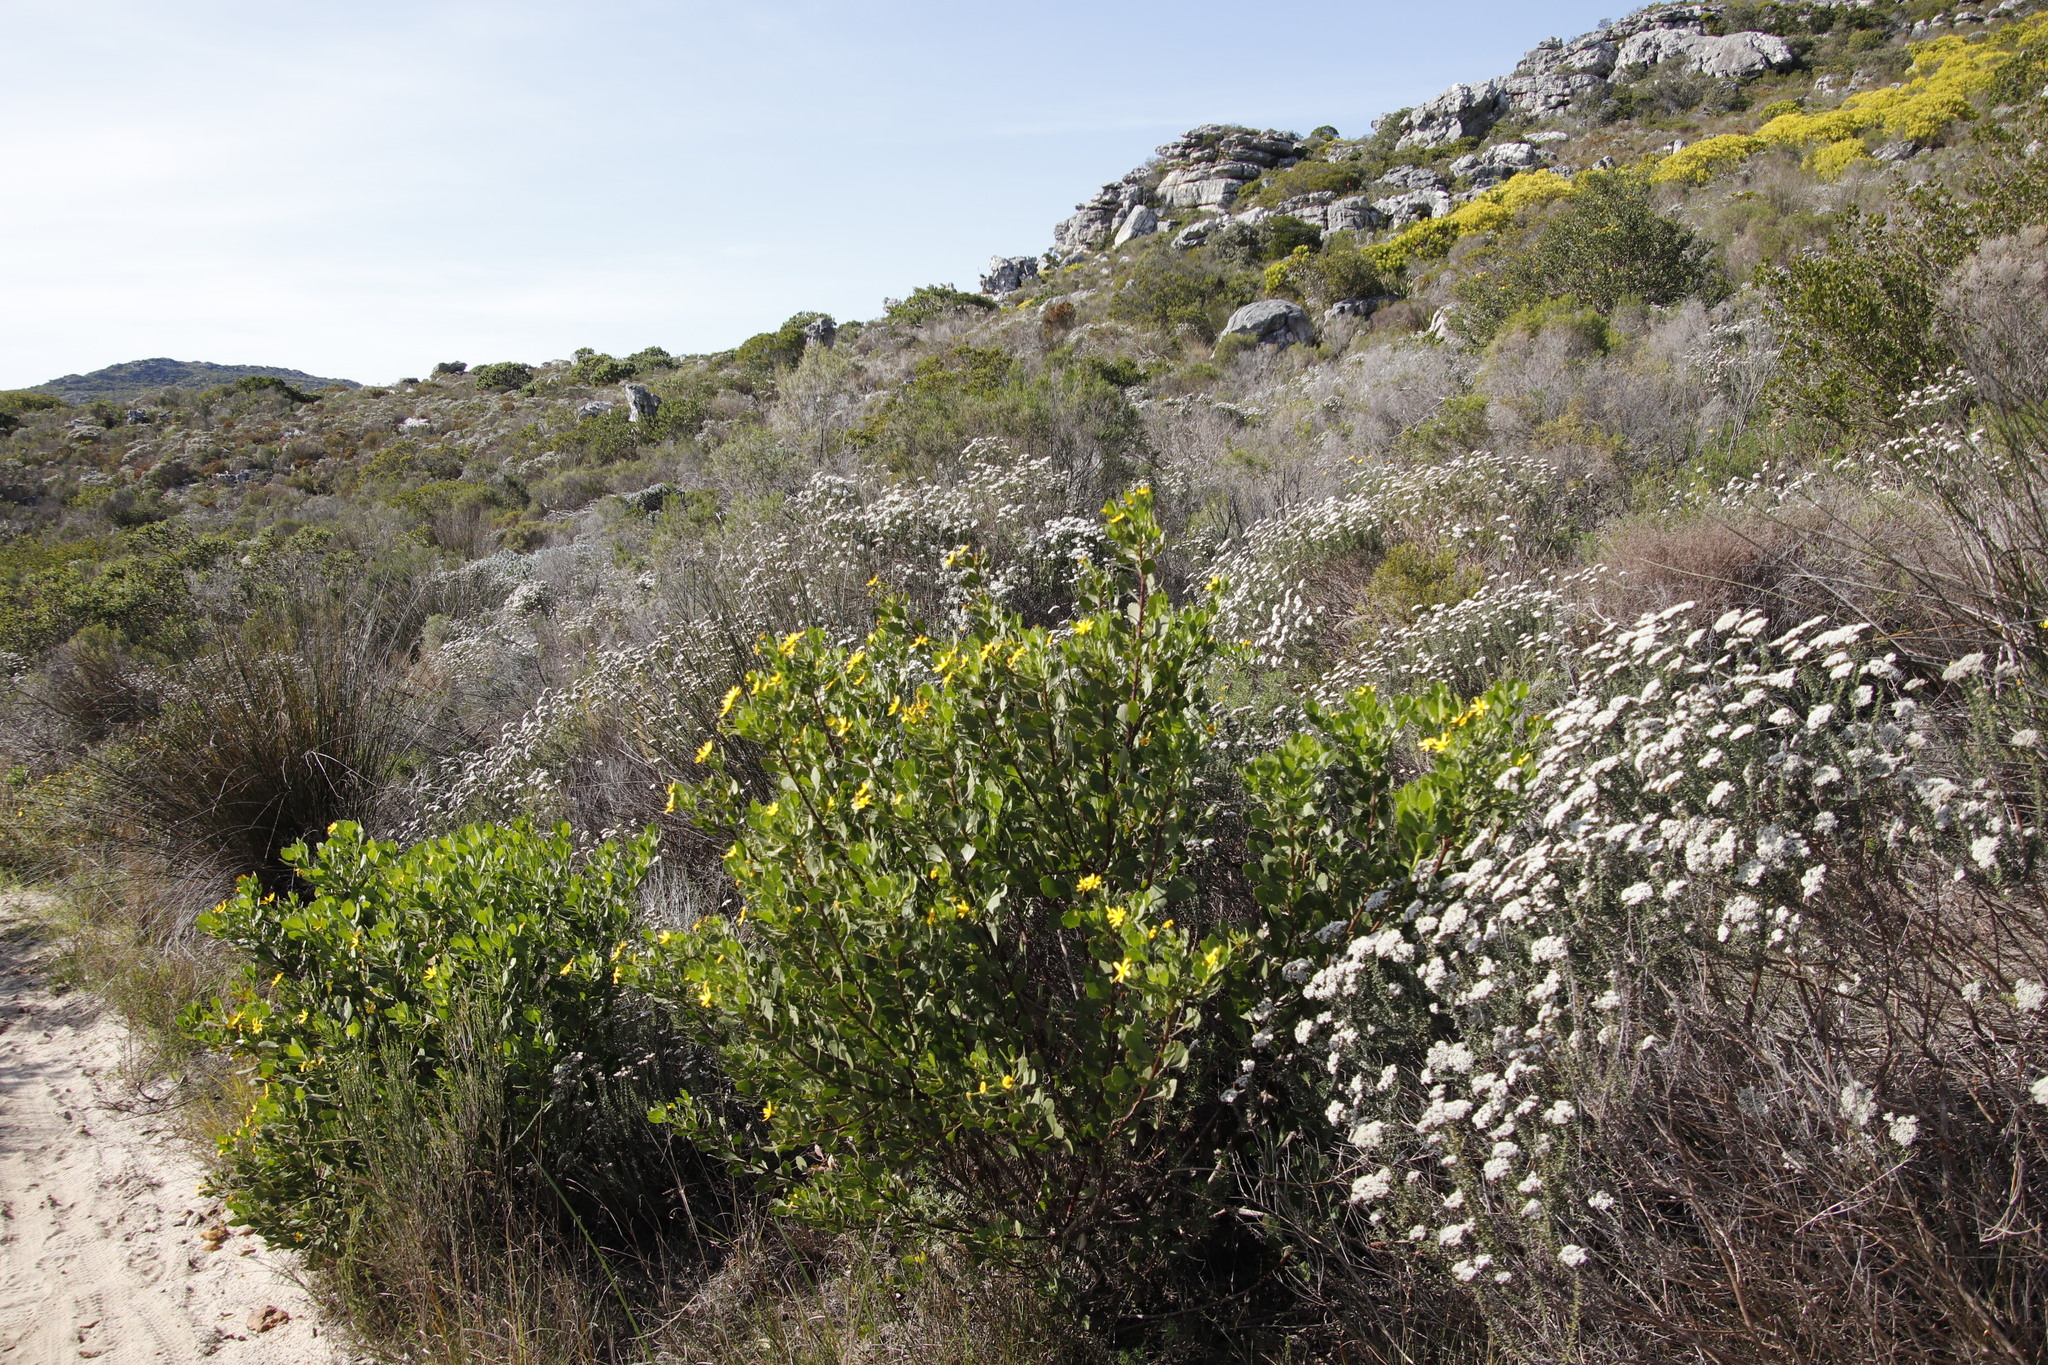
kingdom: Plantae
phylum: Tracheophyta
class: Magnoliopsida
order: Asterales
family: Asteraceae
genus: Osteospermum
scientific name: Osteospermum moniliferum
